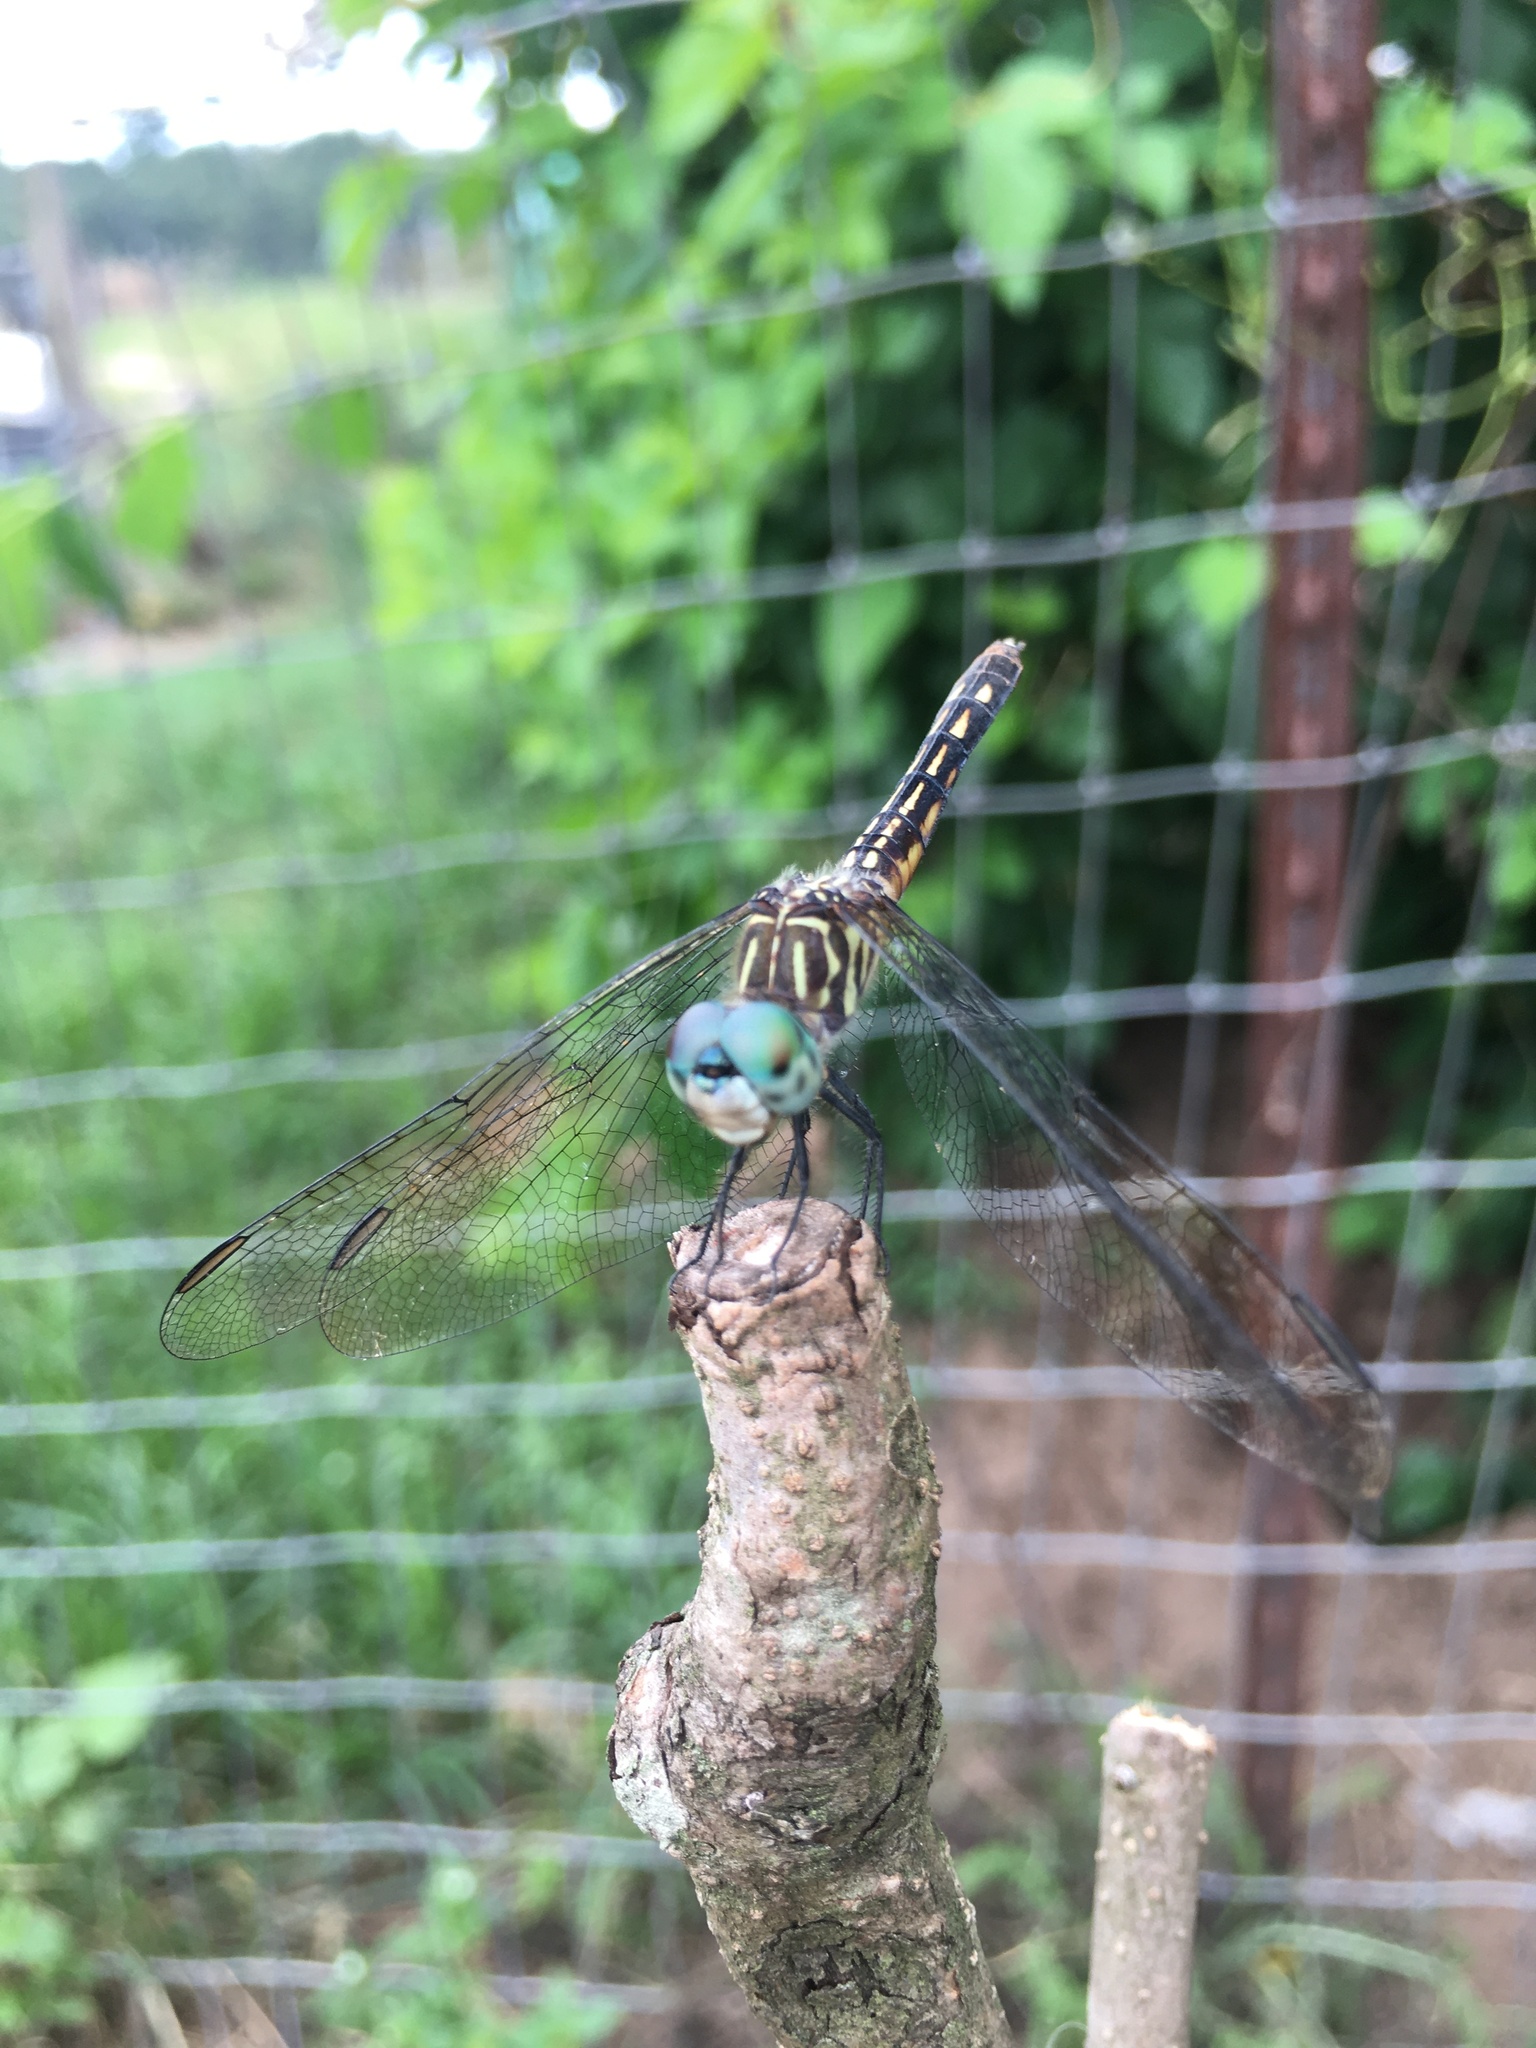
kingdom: Animalia
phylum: Arthropoda
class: Insecta
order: Odonata
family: Libellulidae
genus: Pachydiplax
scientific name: Pachydiplax longipennis
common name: Blue dasher
